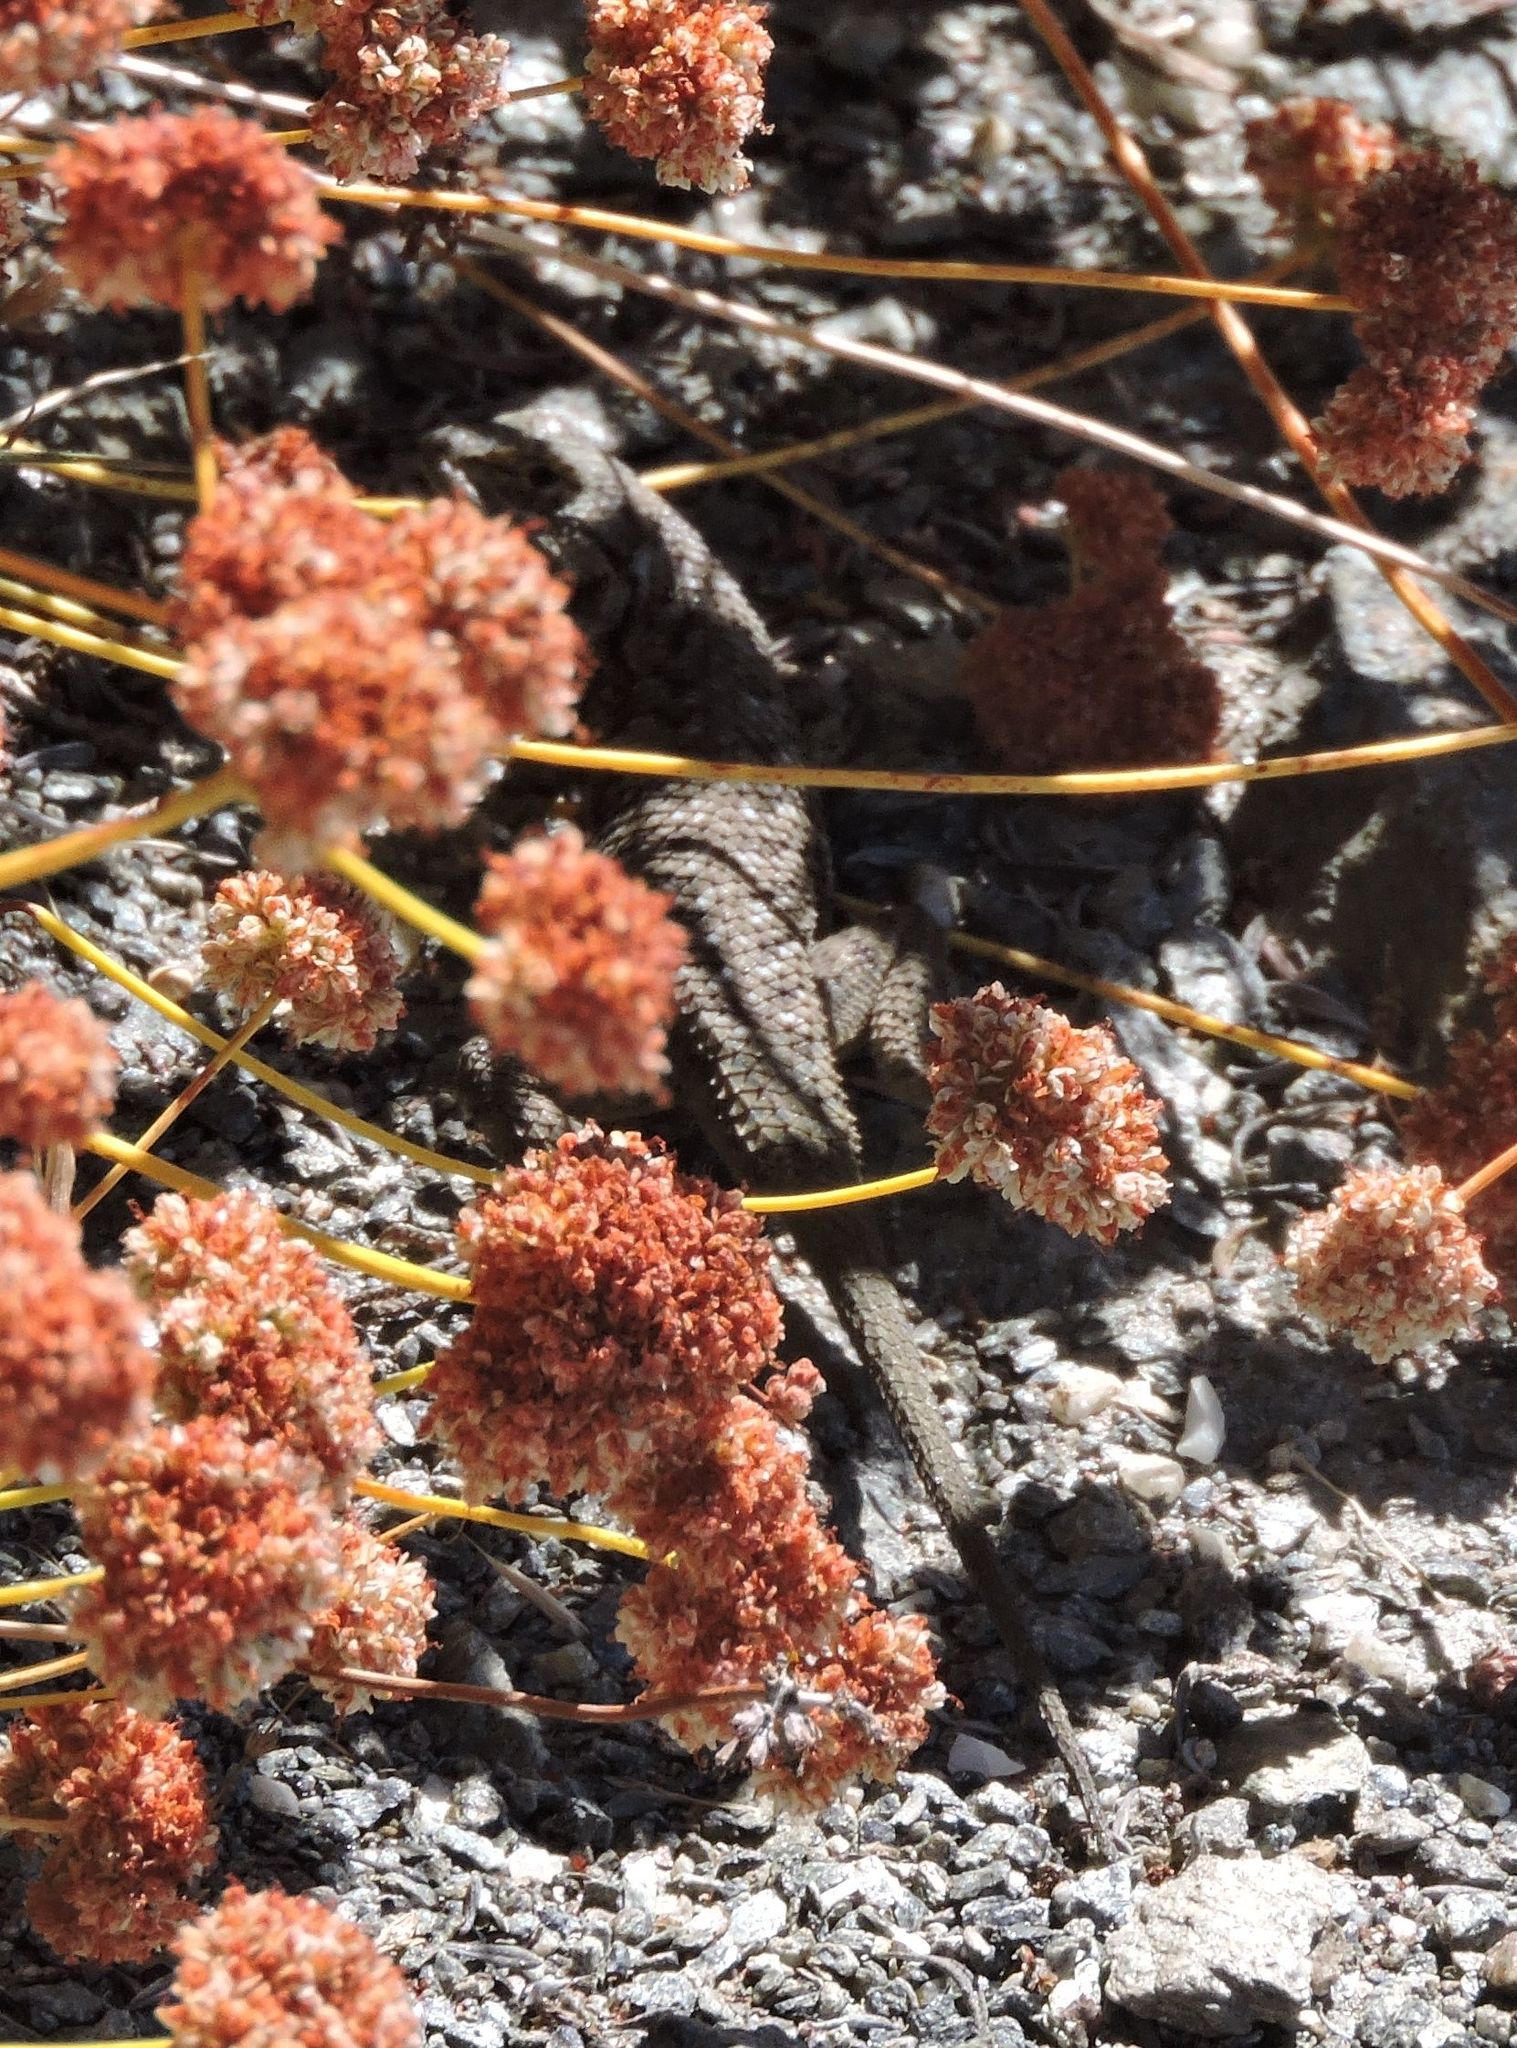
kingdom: Animalia
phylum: Chordata
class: Squamata
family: Phrynosomatidae
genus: Sceloporus
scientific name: Sceloporus occidentalis
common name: Western fence lizard
